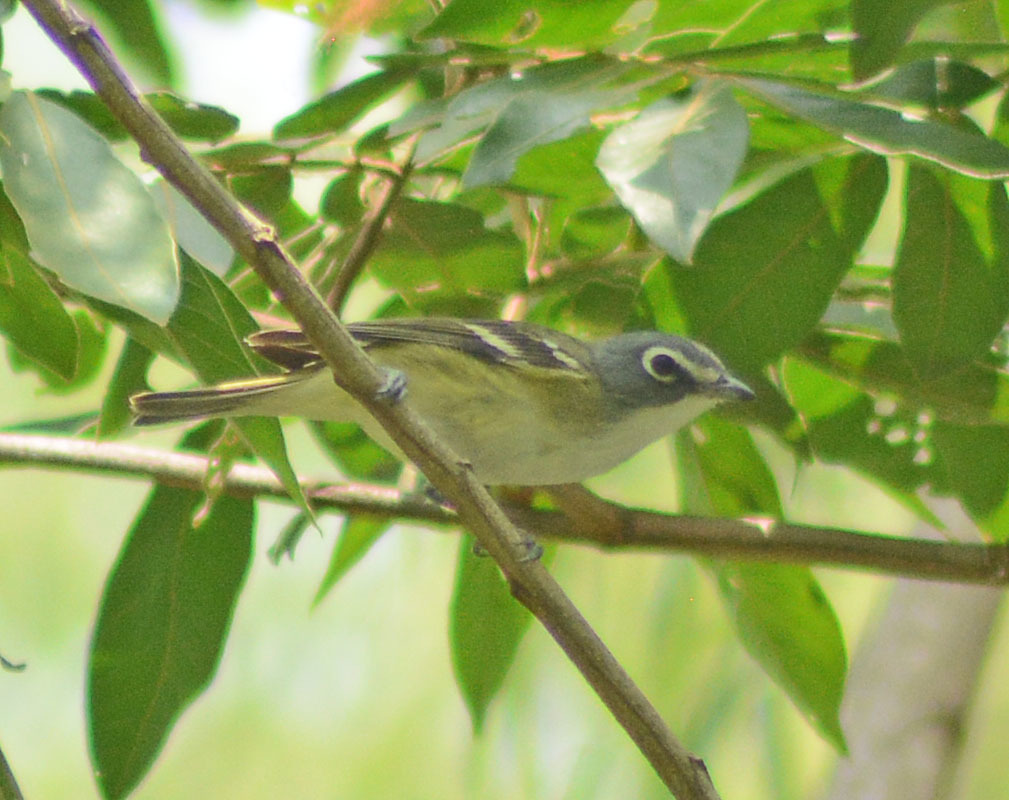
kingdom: Animalia
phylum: Chordata
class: Aves
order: Passeriformes
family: Vireonidae
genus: Vireo
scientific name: Vireo solitarius
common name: Blue-headed vireo
